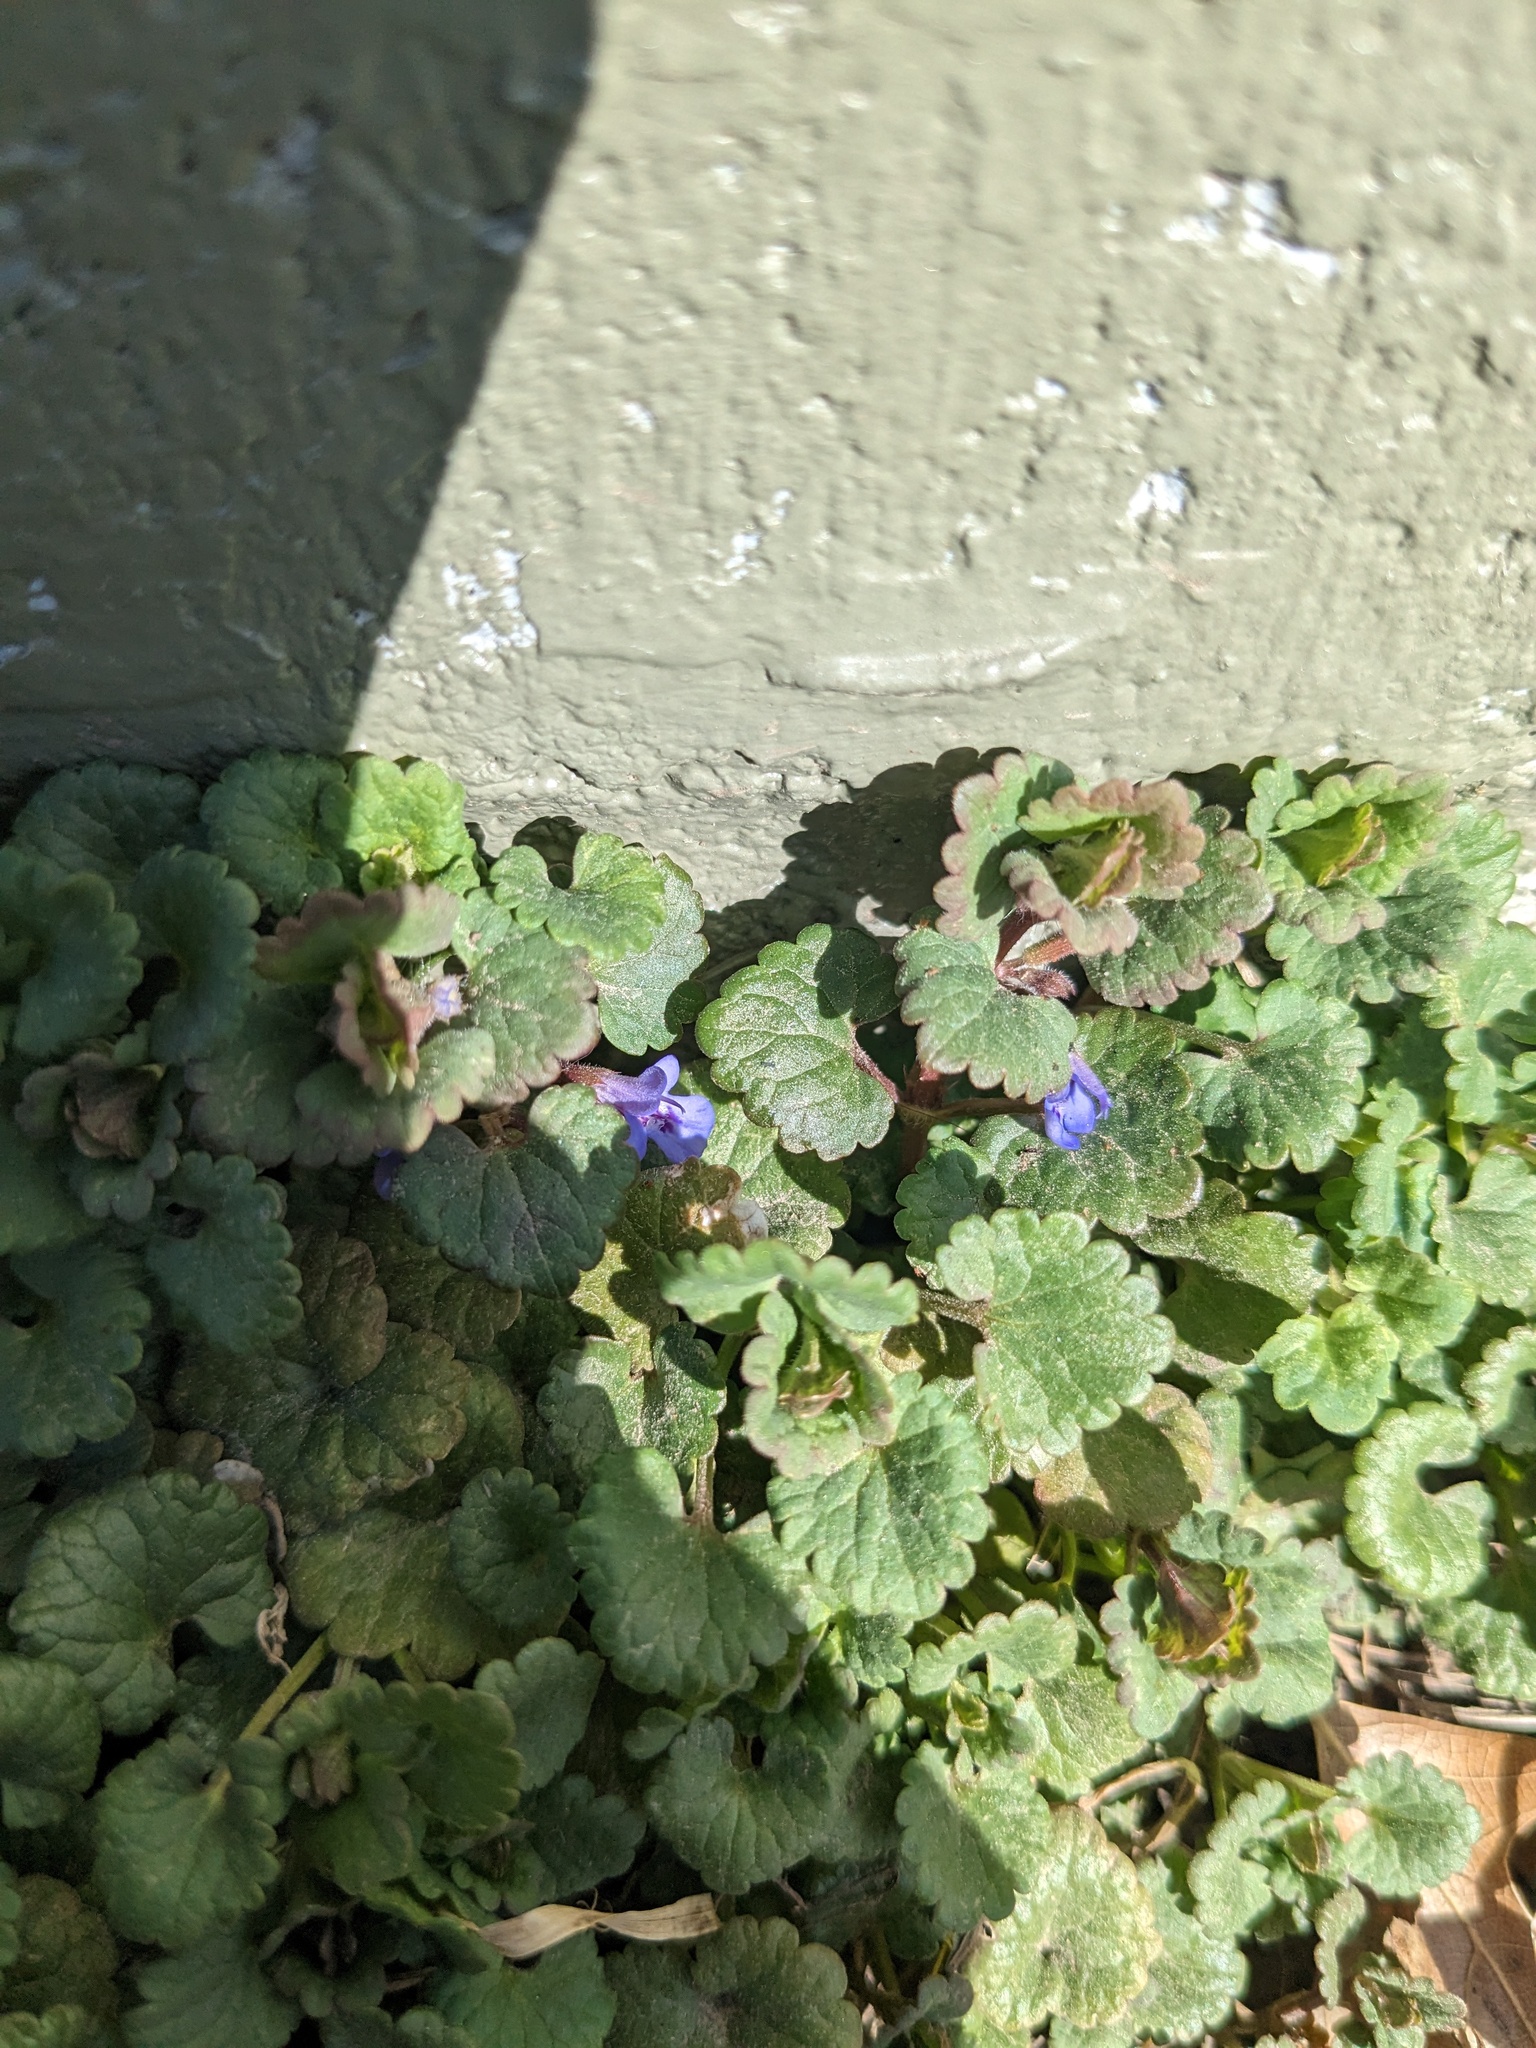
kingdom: Plantae
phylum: Tracheophyta
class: Magnoliopsida
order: Lamiales
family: Lamiaceae
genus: Glechoma
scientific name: Glechoma hederacea
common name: Ground ivy
